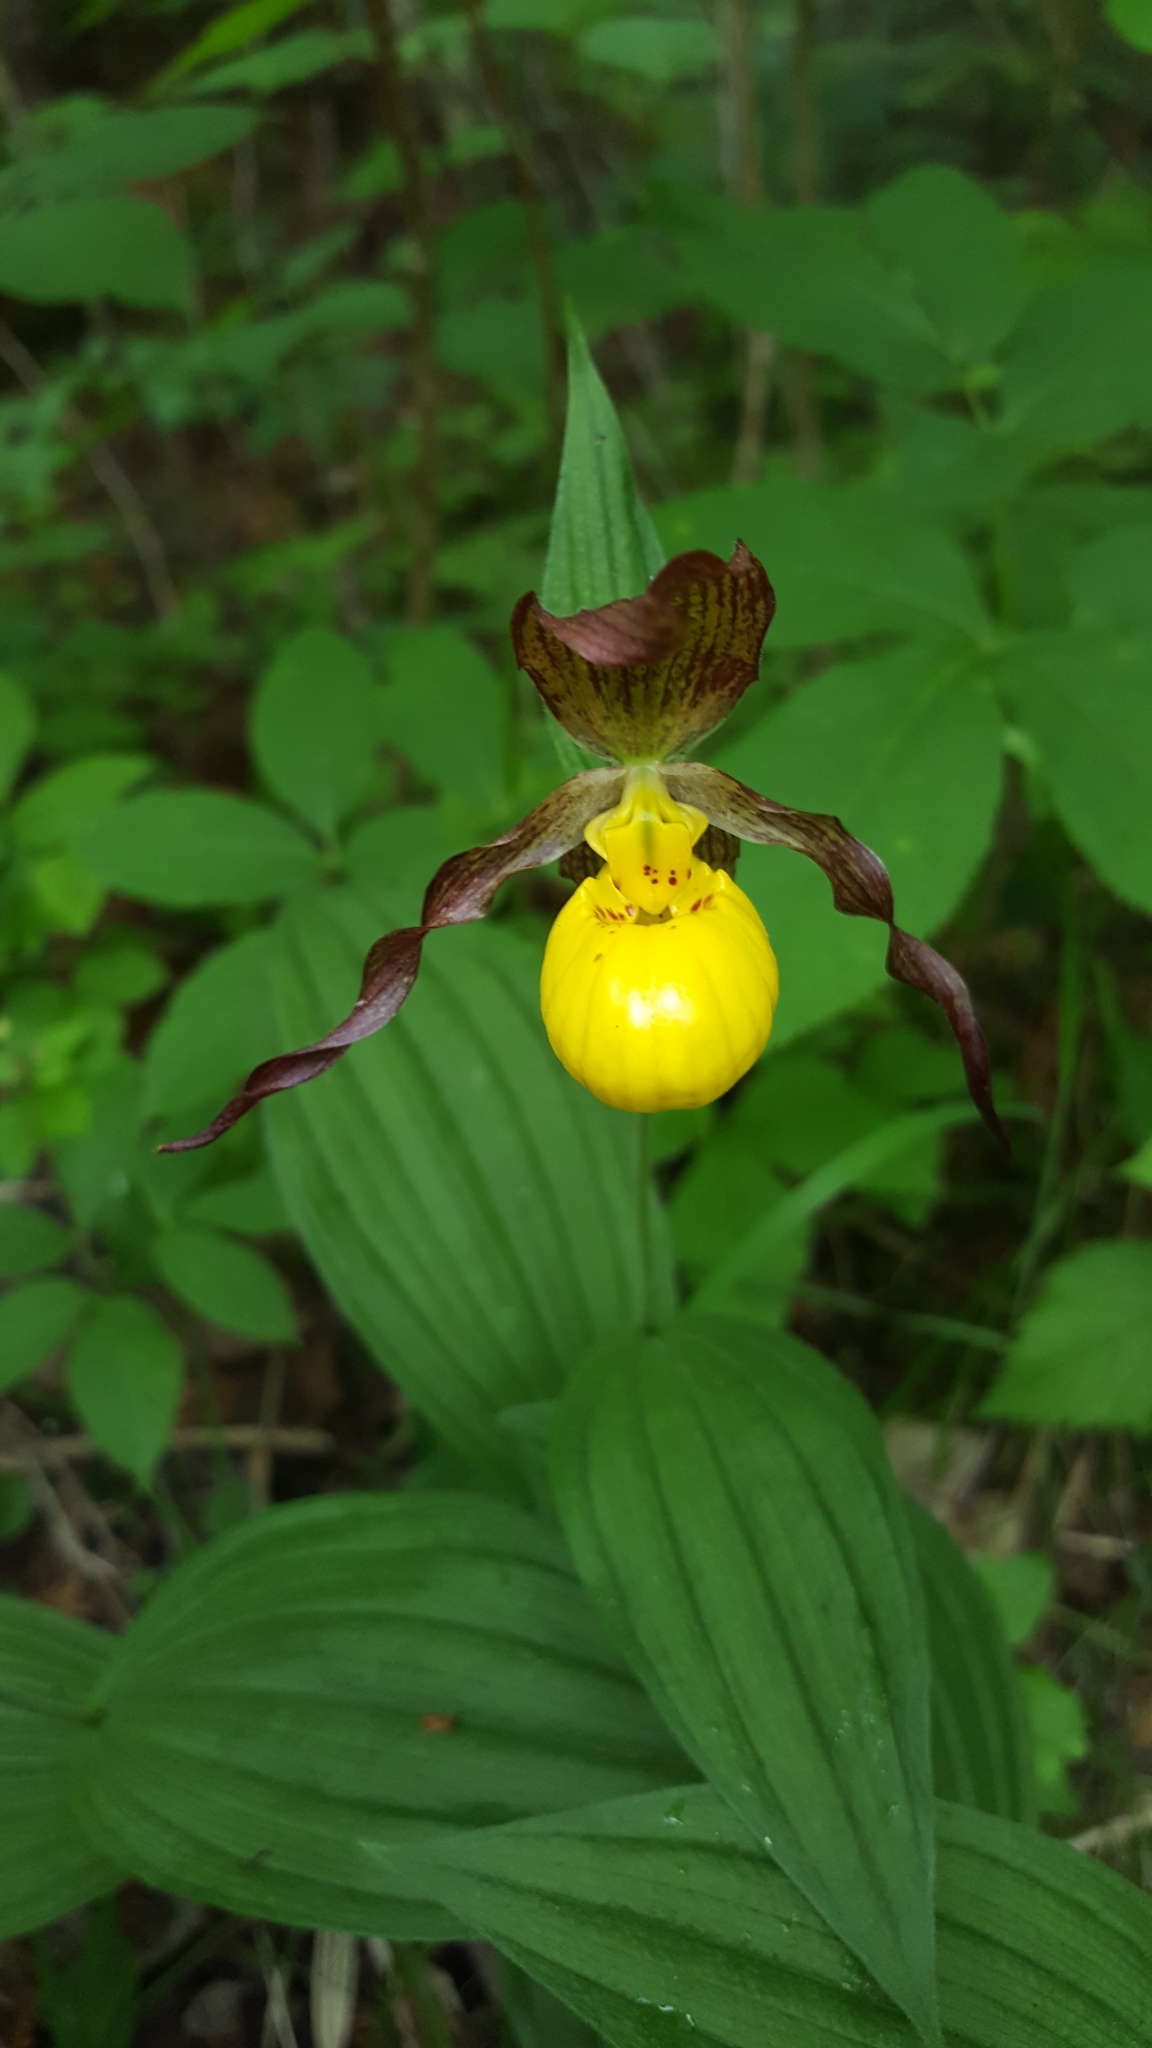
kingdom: Plantae
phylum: Tracheophyta
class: Liliopsida
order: Asparagales
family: Orchidaceae
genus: Cypripedium
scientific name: Cypripedium parviflorum
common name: American yellow lady's-slipper
